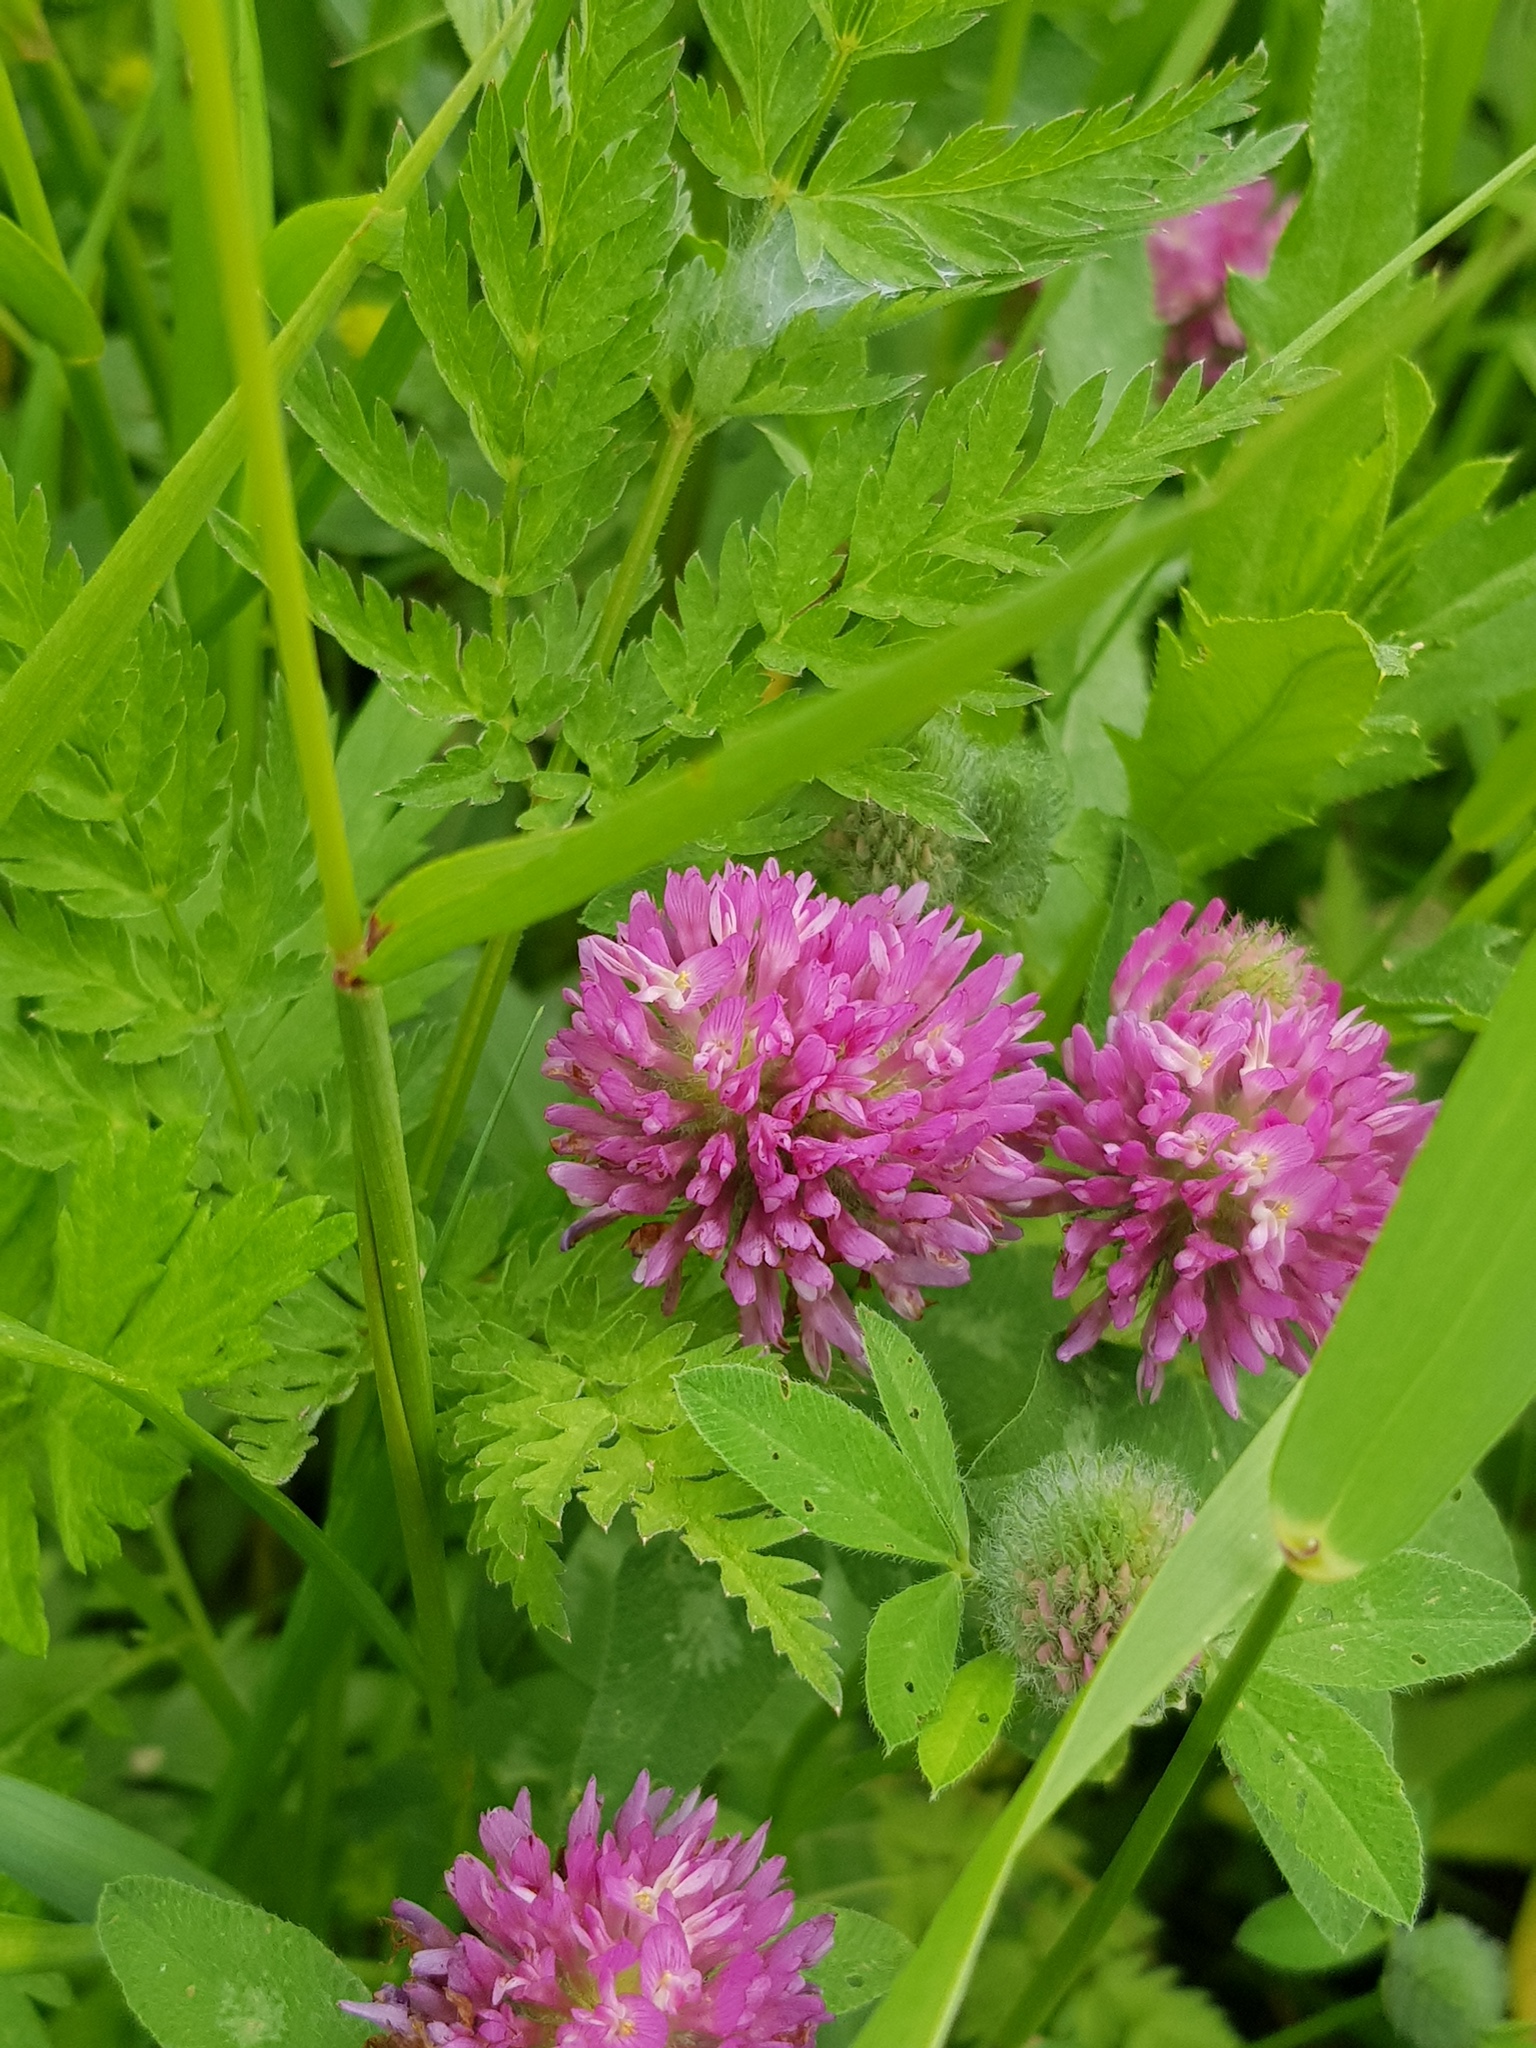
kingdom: Plantae
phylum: Tracheophyta
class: Magnoliopsida
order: Fabales
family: Fabaceae
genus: Trifolium
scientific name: Trifolium pratense
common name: Red clover
